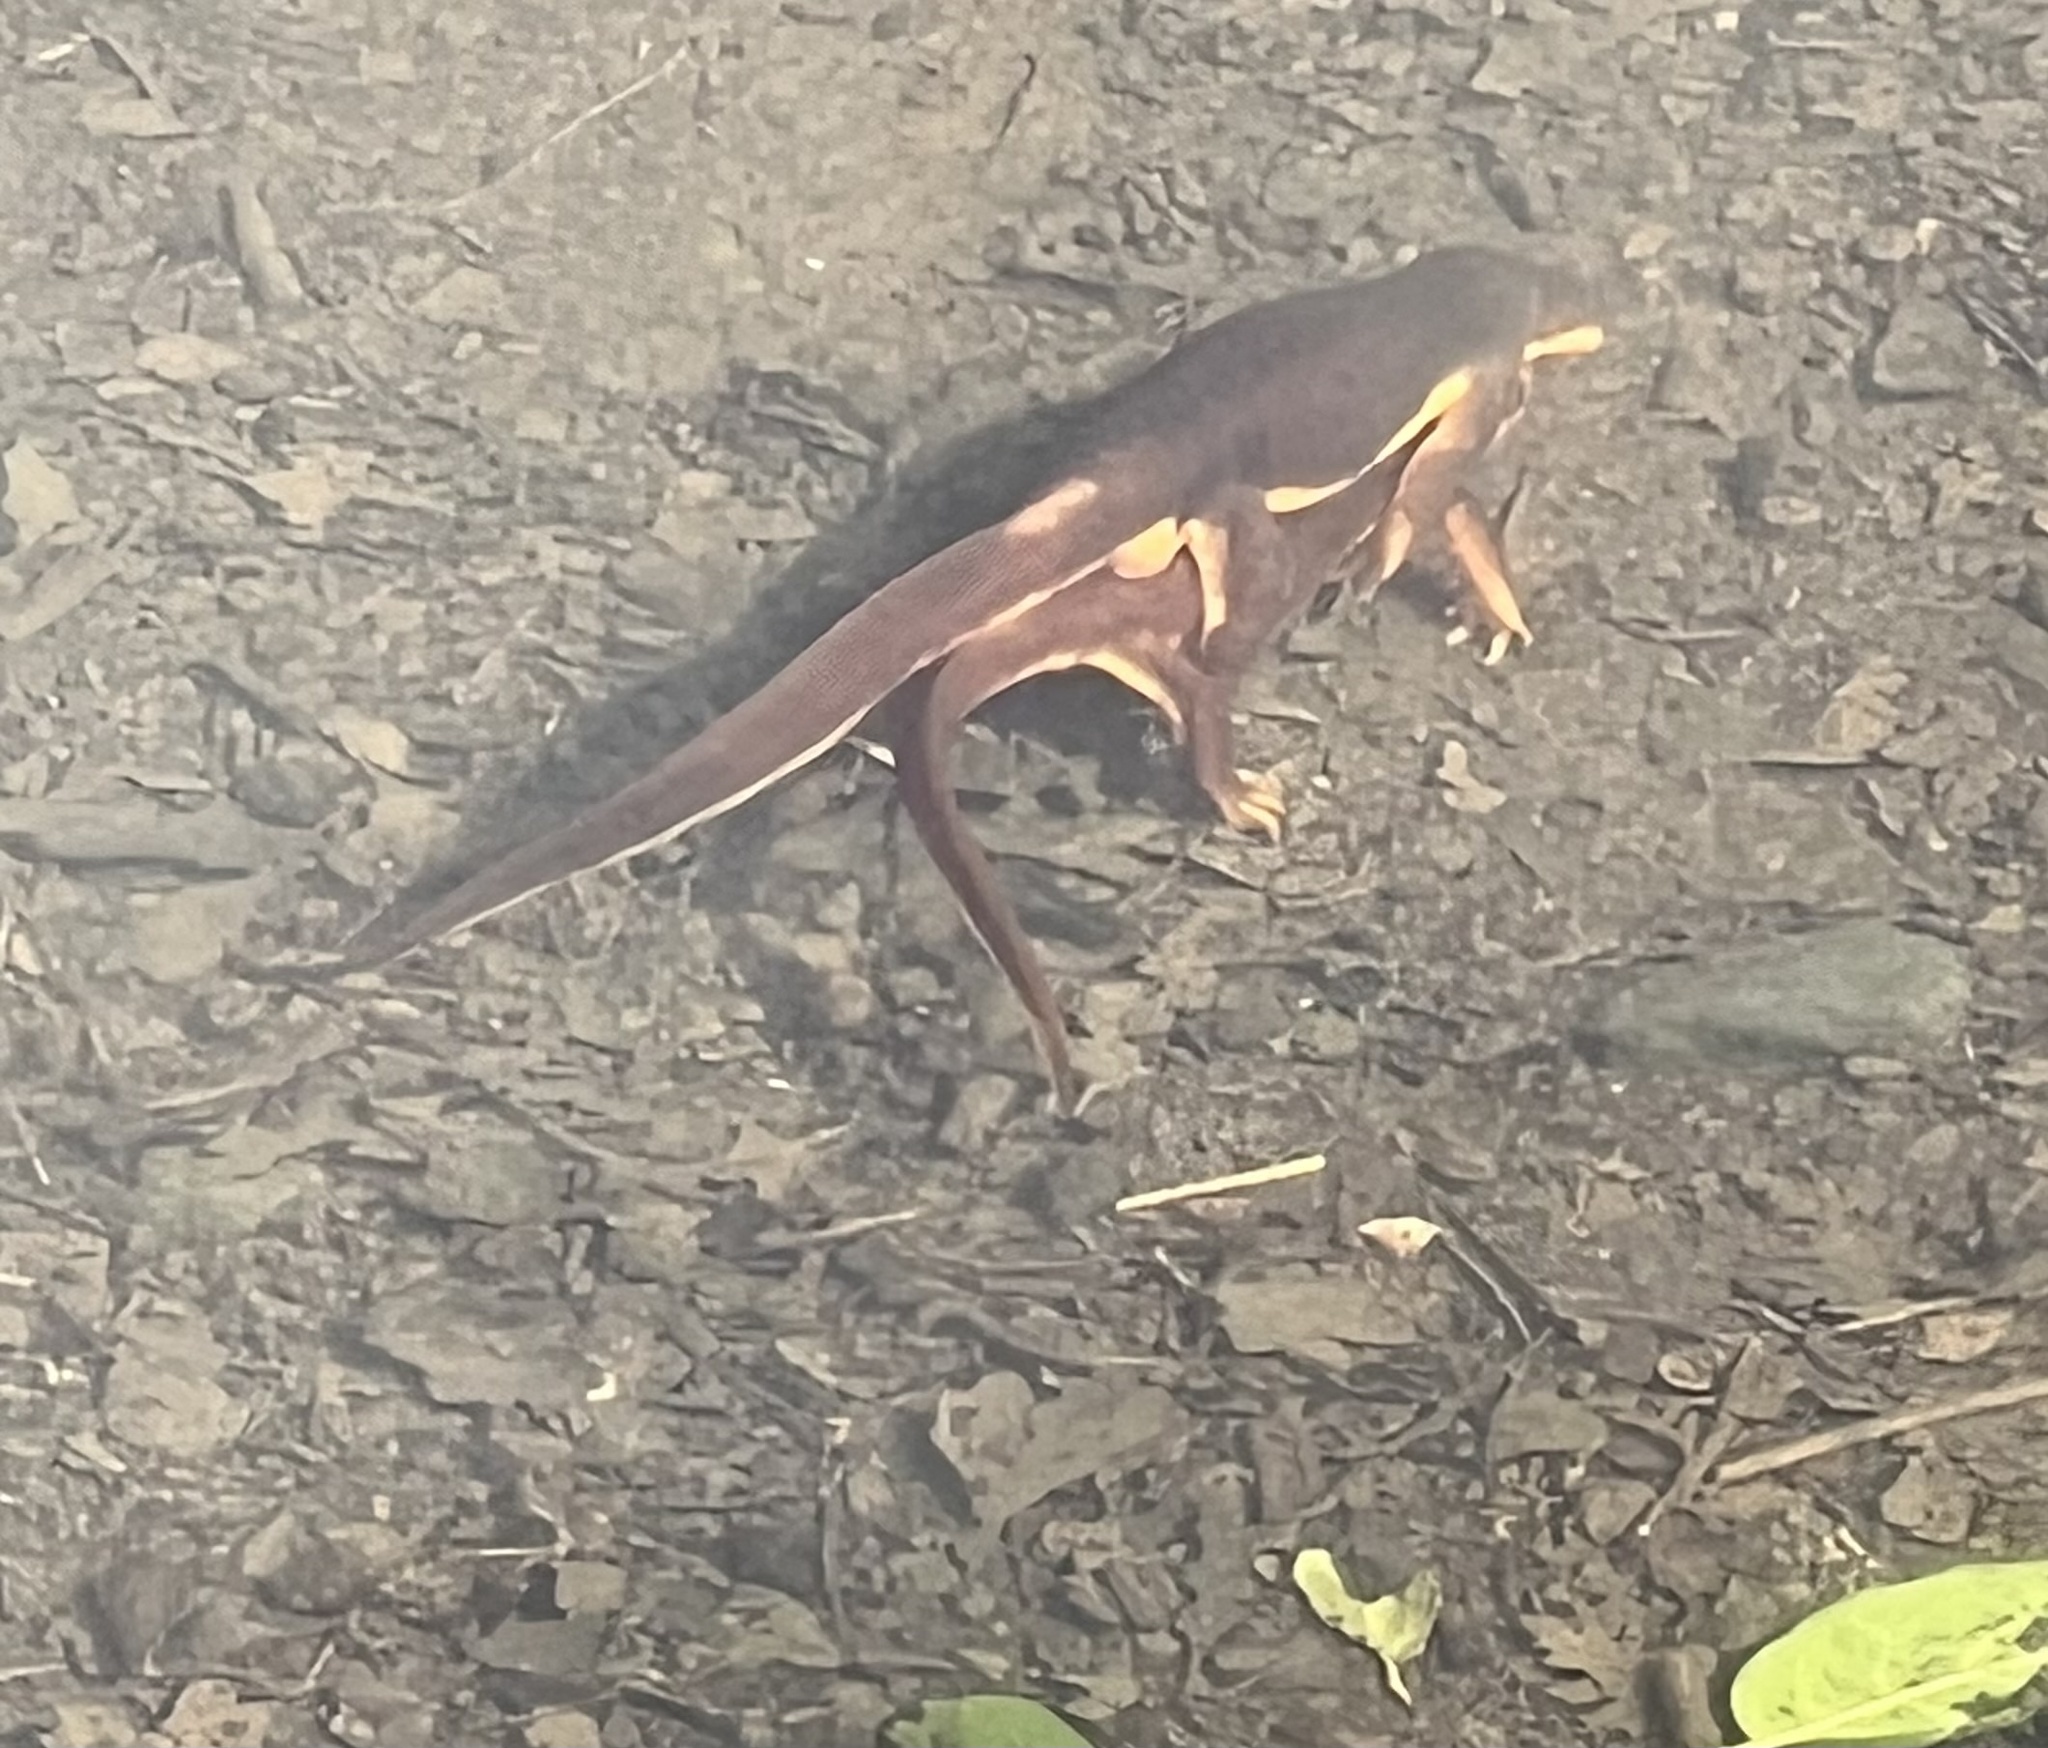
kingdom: Animalia
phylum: Chordata
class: Amphibia
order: Caudata
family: Salamandridae
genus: Taricha
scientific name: Taricha torosa
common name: California newt
